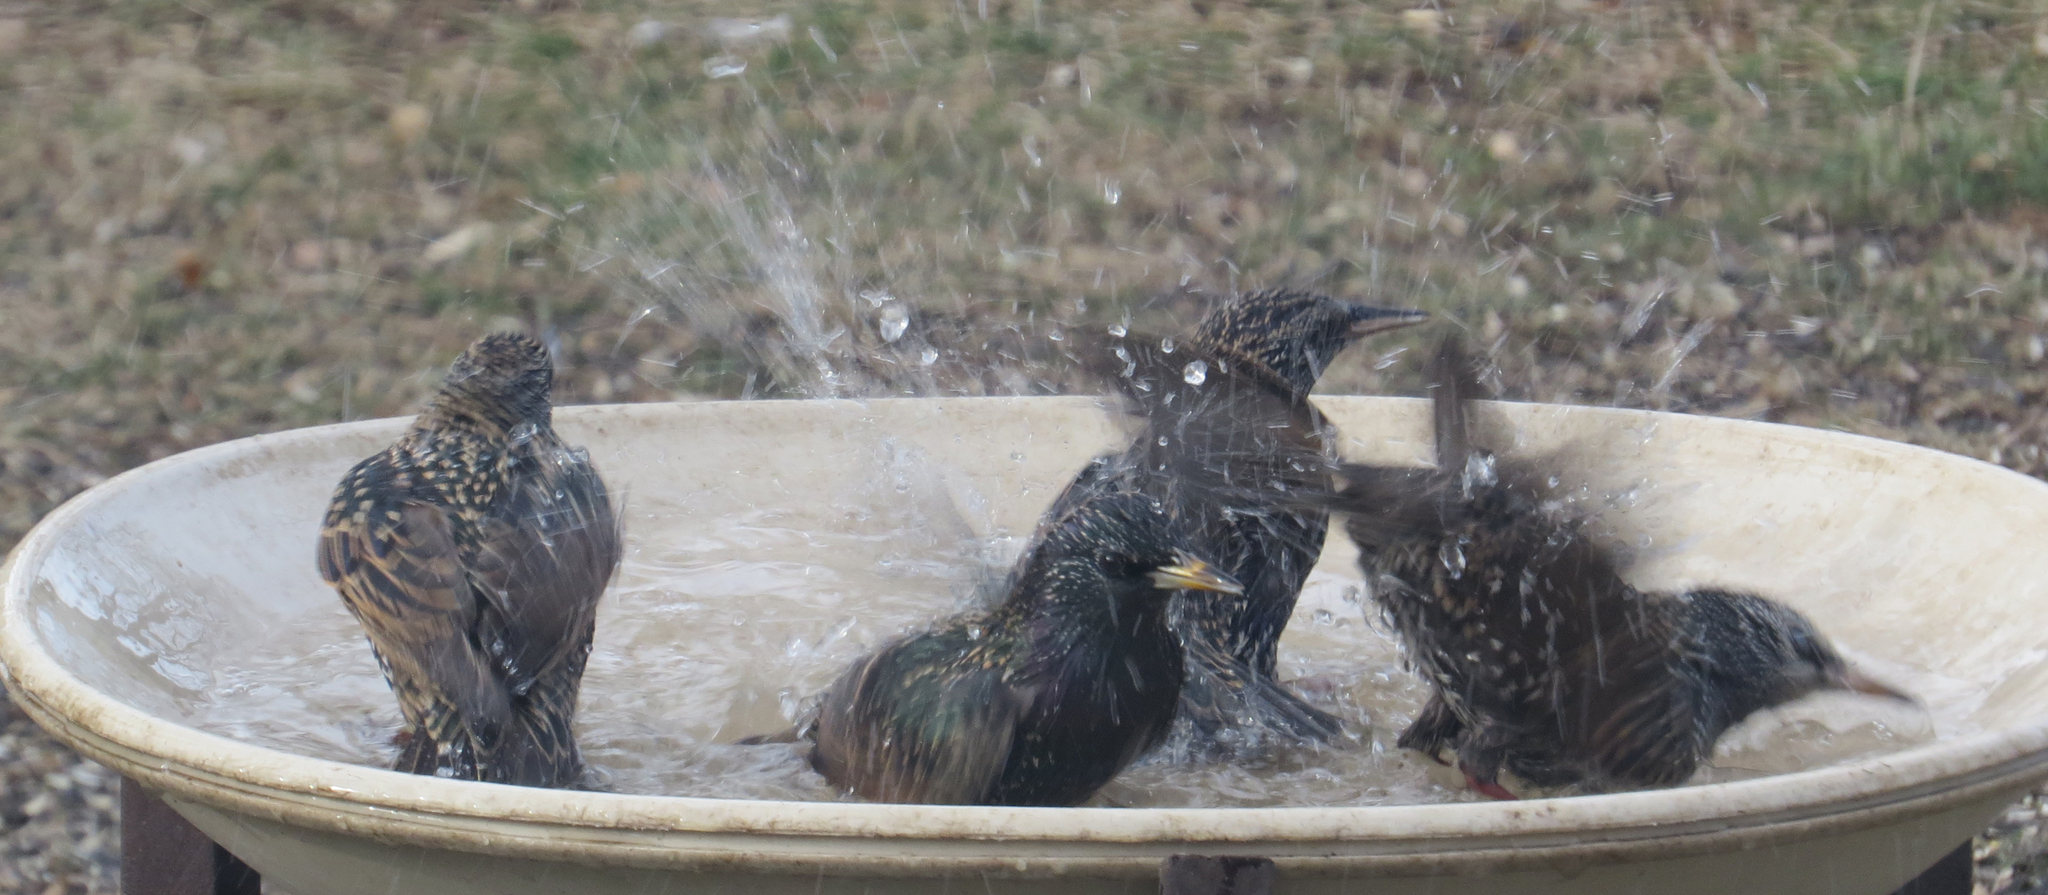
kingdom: Animalia
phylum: Chordata
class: Aves
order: Passeriformes
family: Sturnidae
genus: Sturnus
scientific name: Sturnus vulgaris
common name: Common starling
